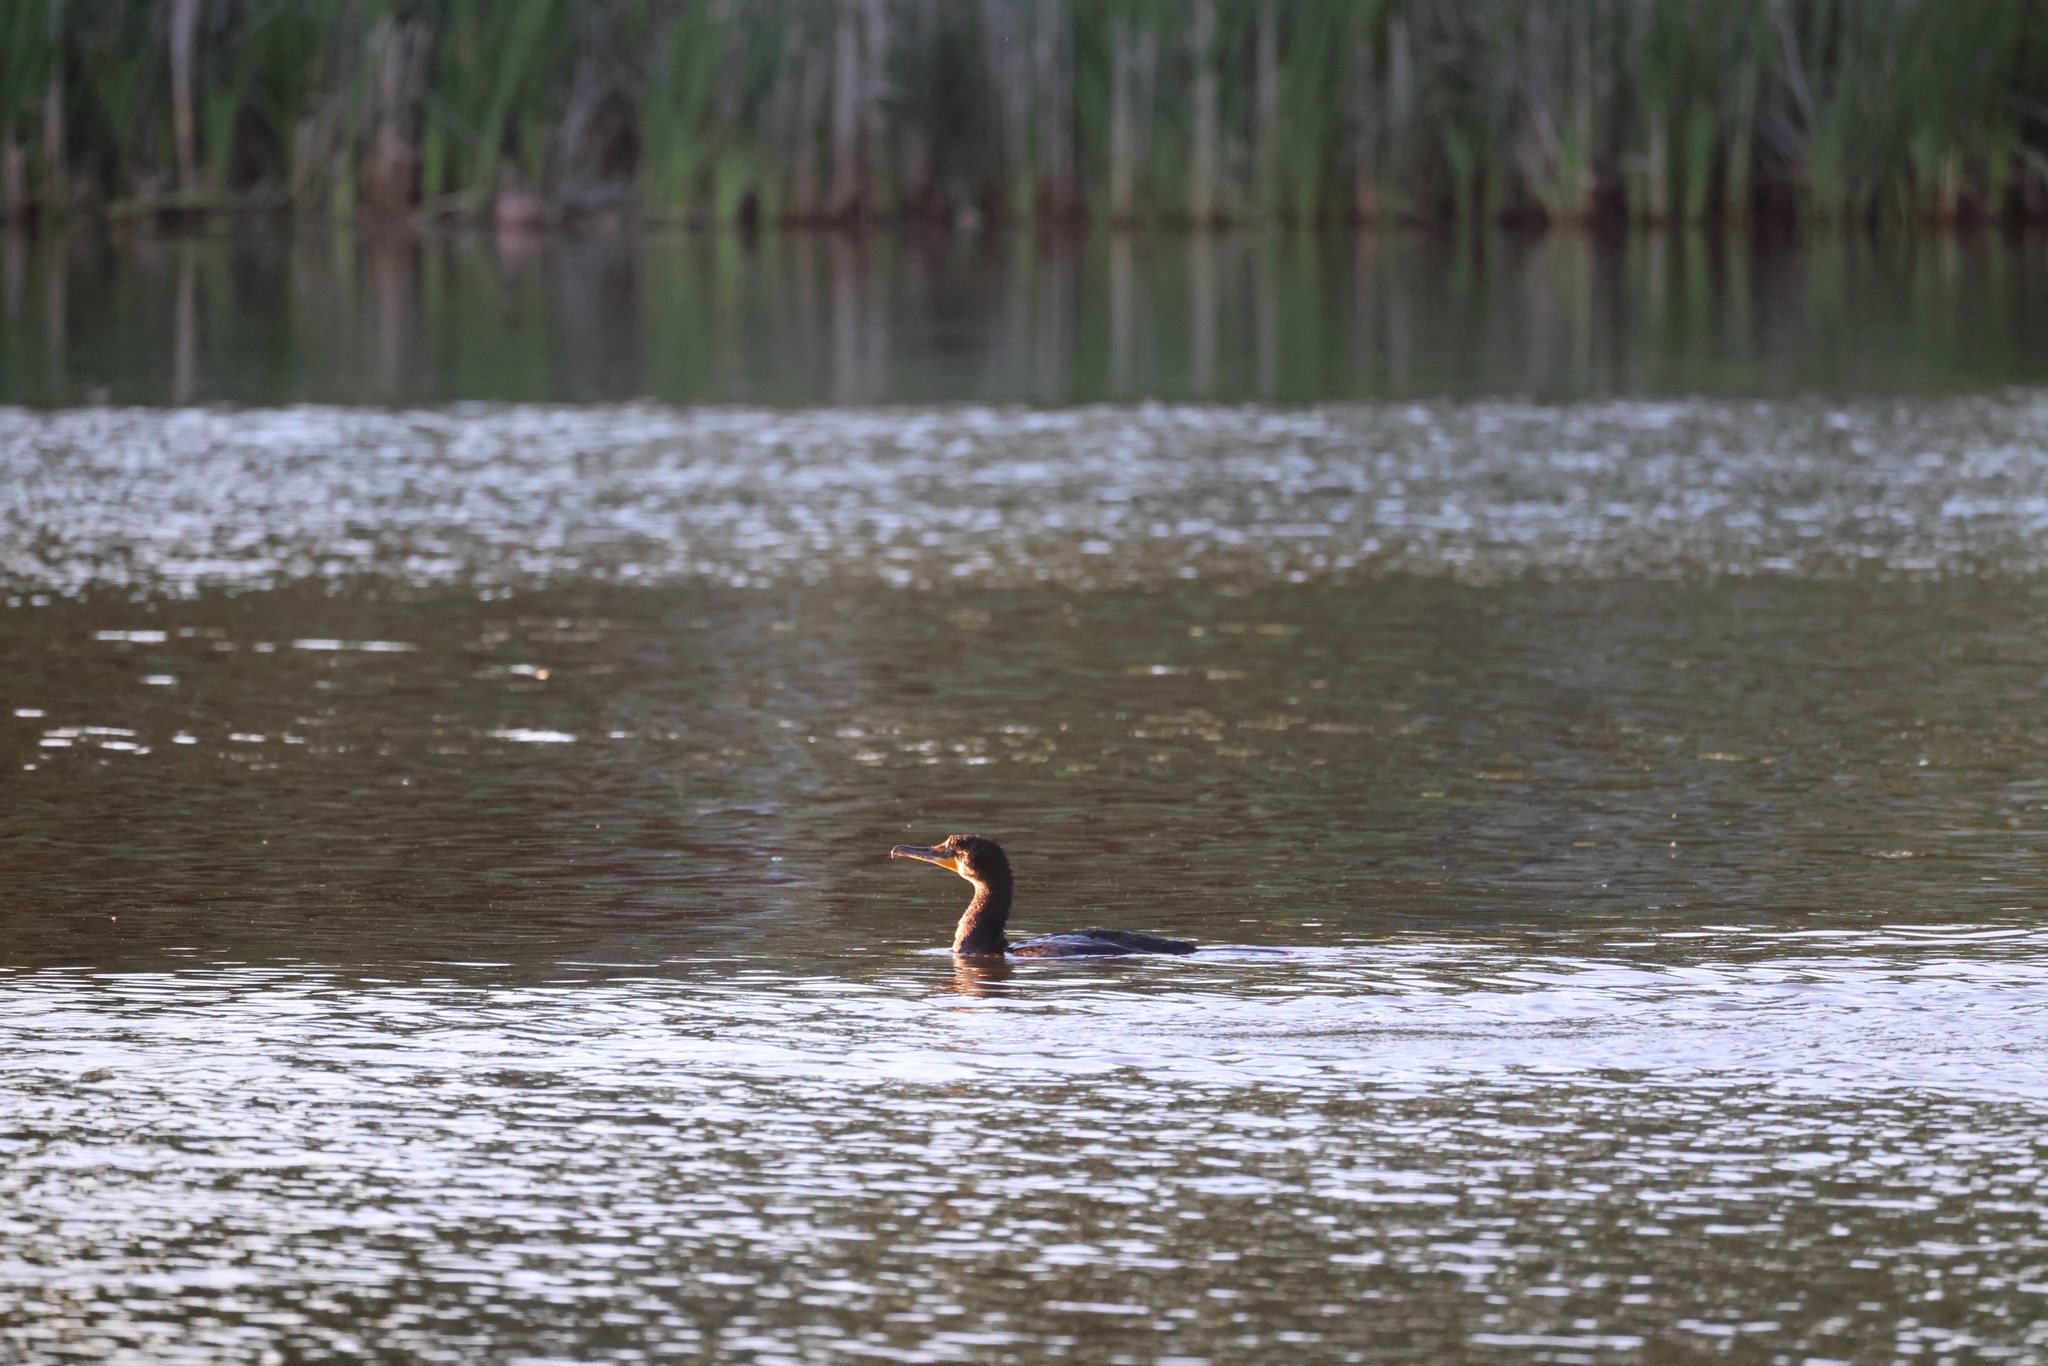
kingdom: Animalia
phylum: Chordata
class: Aves
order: Suliformes
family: Phalacrocoracidae
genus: Phalacrocorax
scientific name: Phalacrocorax auritus
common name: Double-crested cormorant
